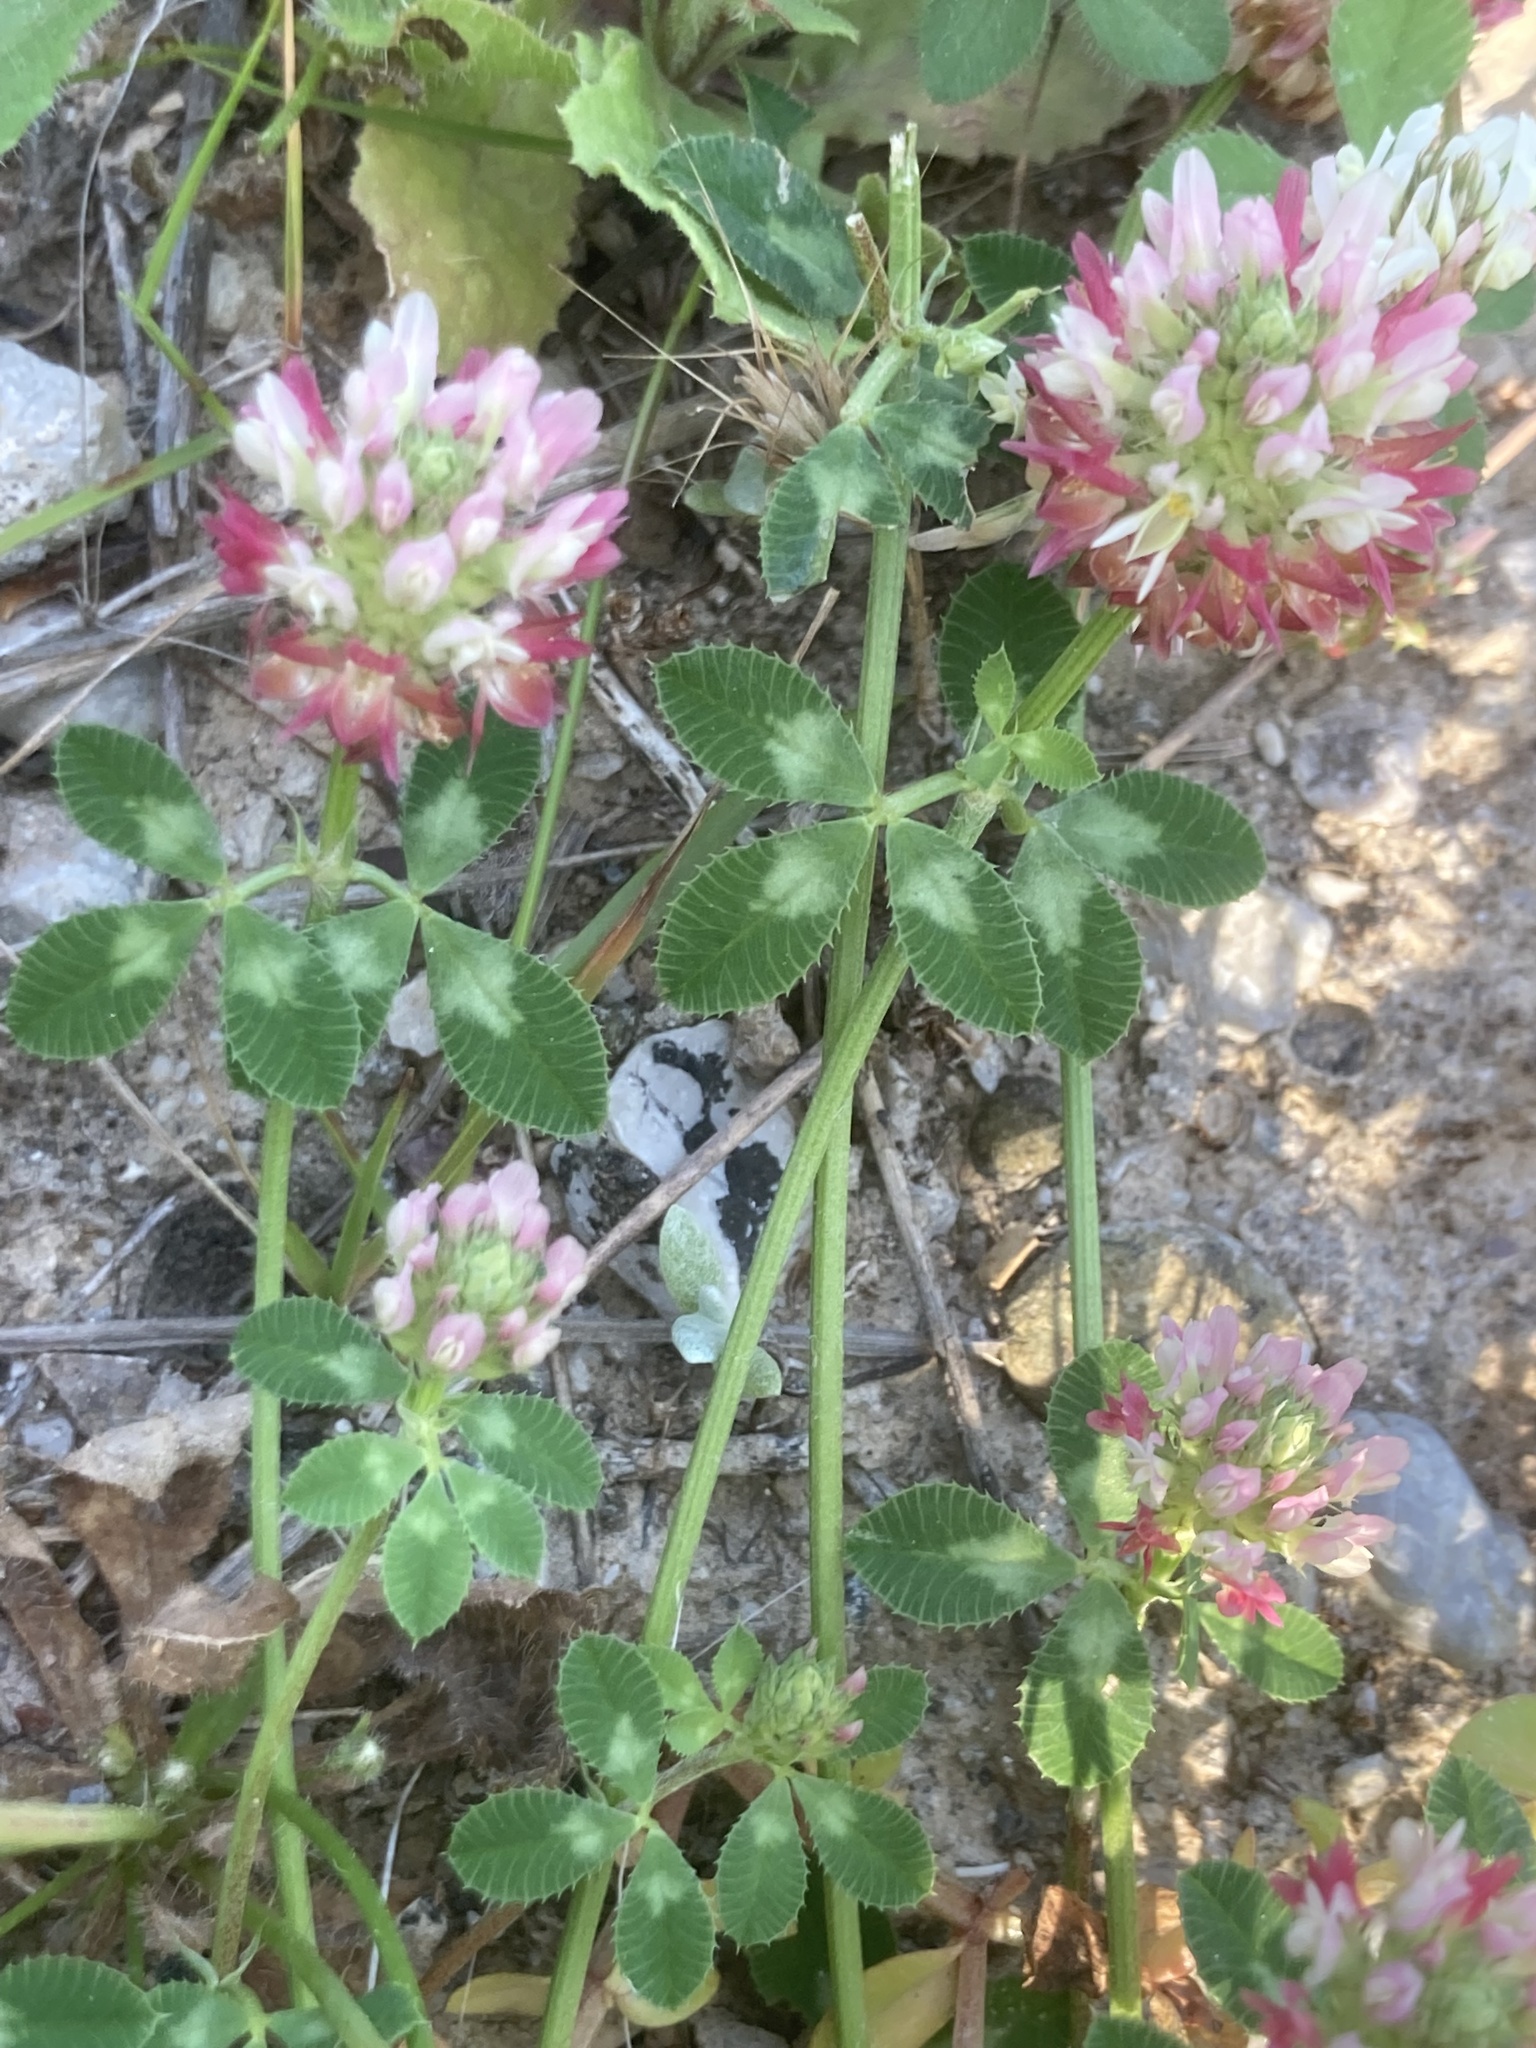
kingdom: Plantae
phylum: Tracheophyta
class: Magnoliopsida
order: Fabales
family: Fabaceae
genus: Trifolium
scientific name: Trifolium argutum
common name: Sharp-tooth clover
